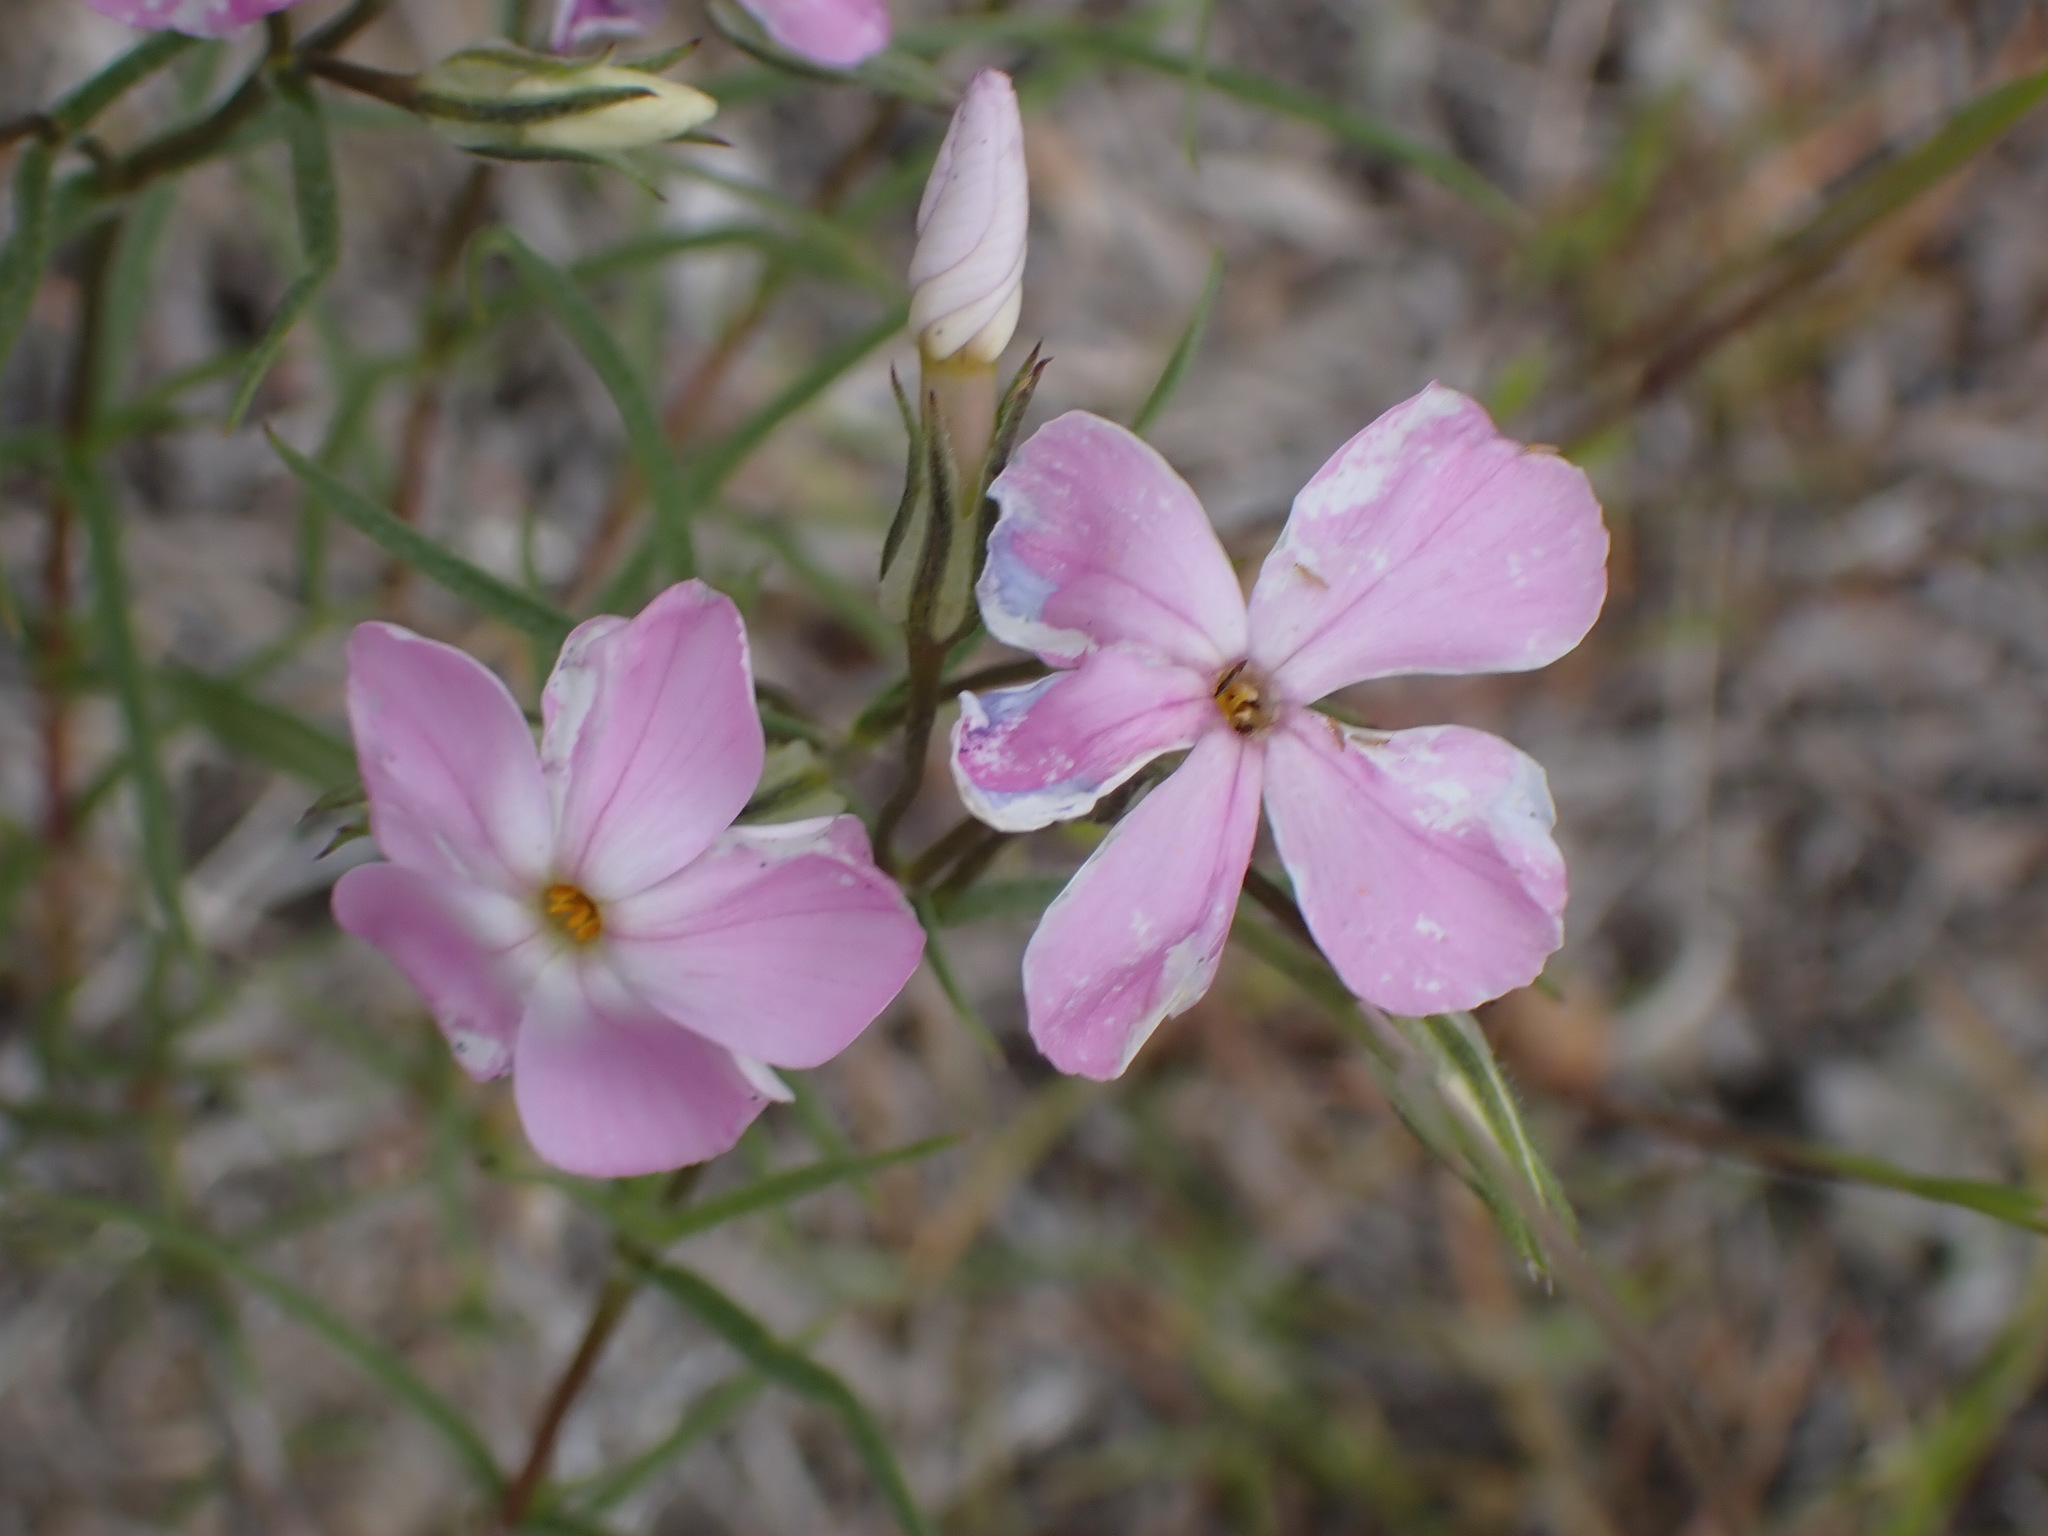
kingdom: Plantae
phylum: Tracheophyta
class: Magnoliopsida
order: Ericales
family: Polemoniaceae
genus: Phlox
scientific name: Phlox longifolia
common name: Longleaf phlox
